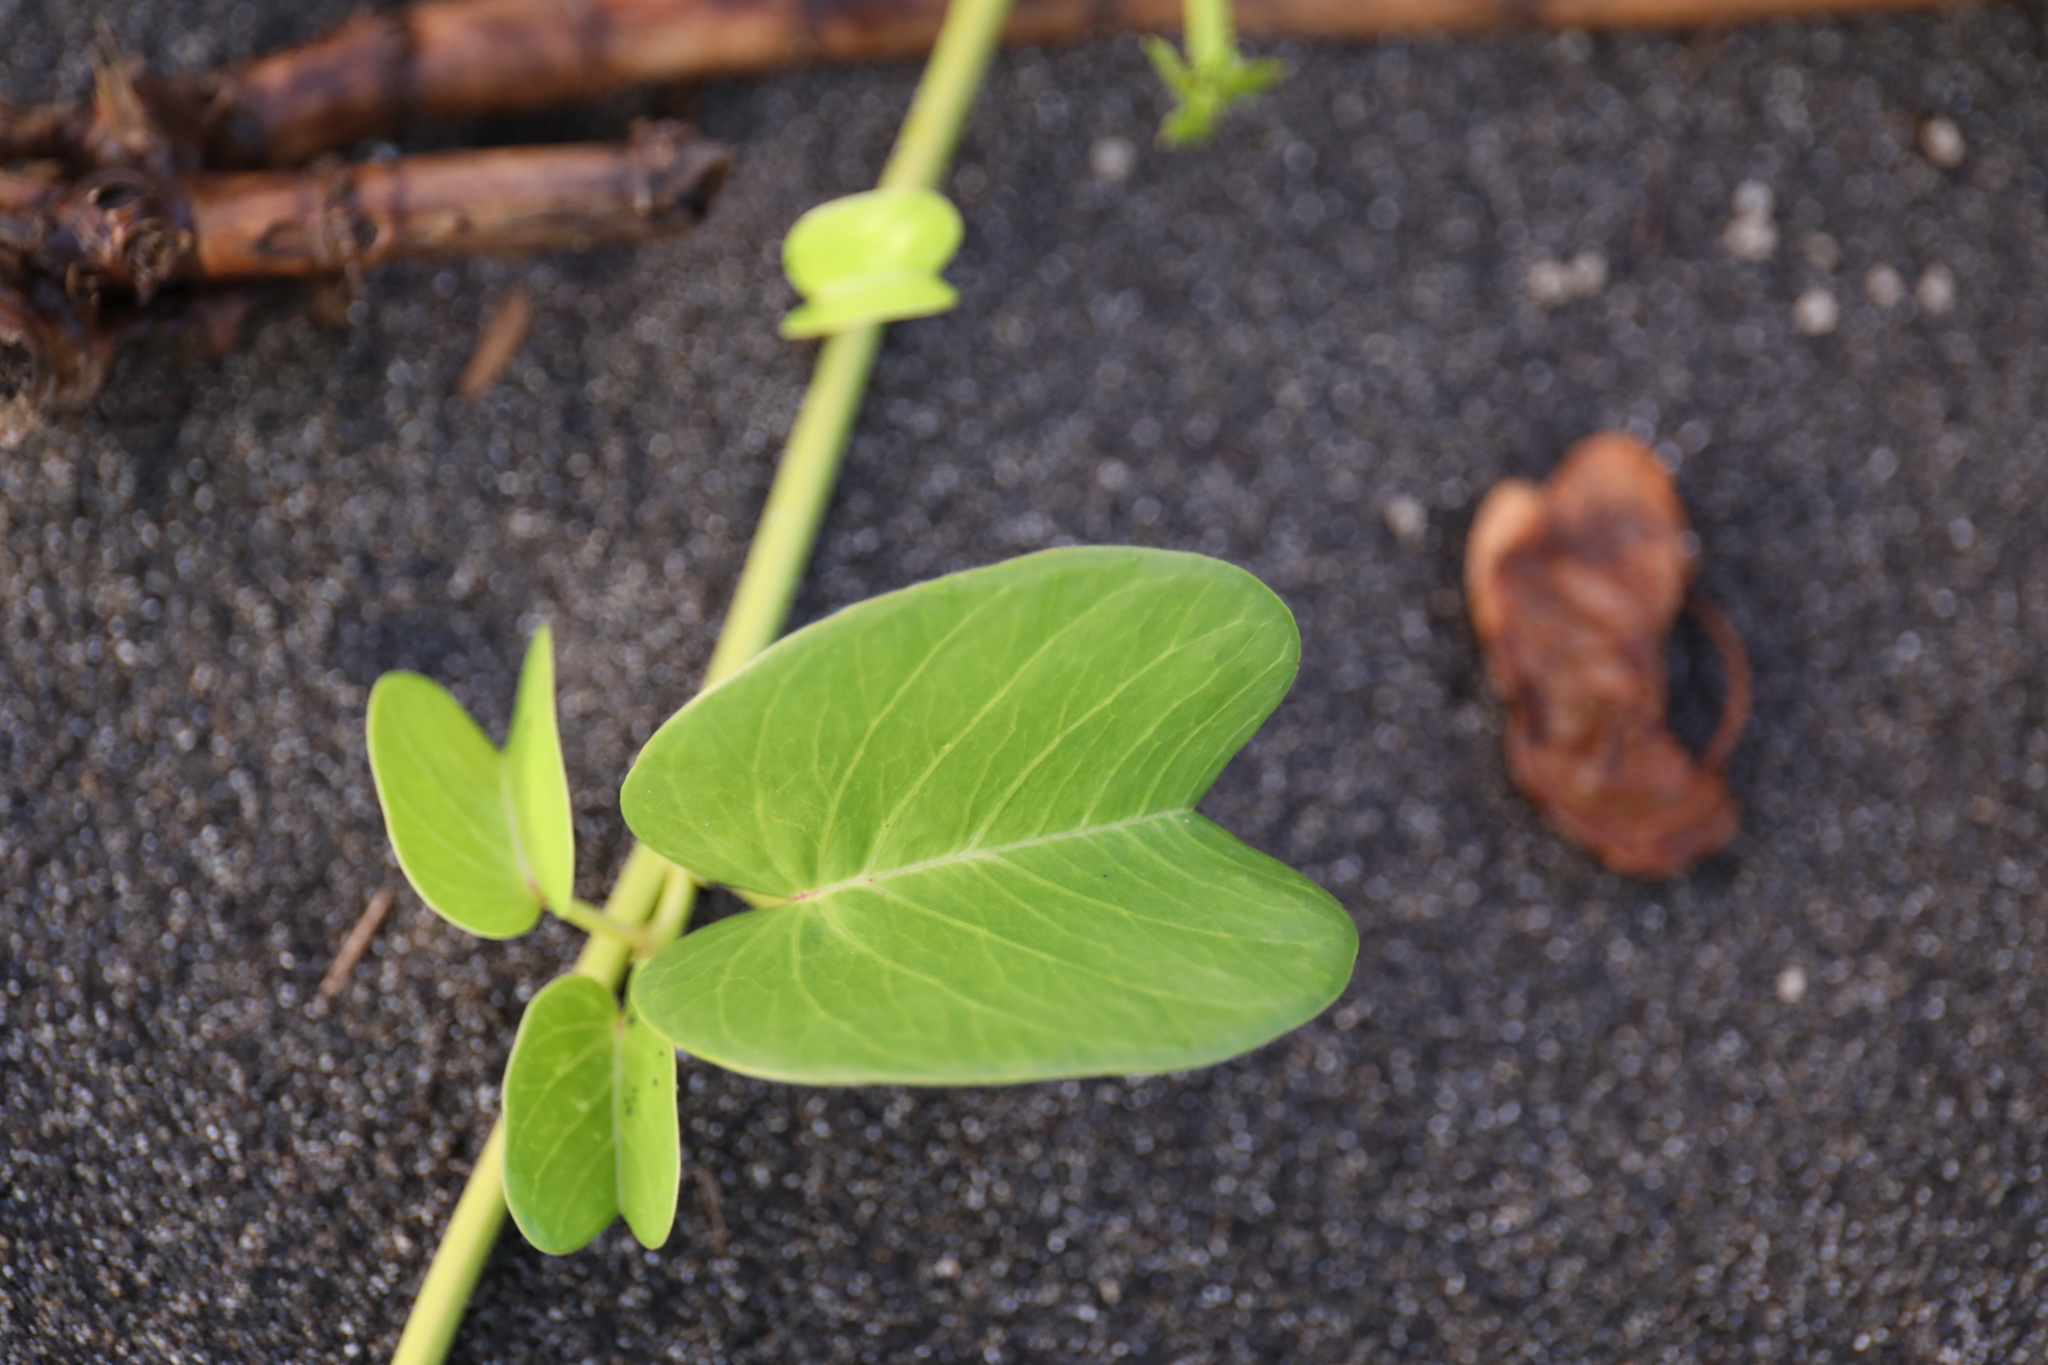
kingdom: Plantae
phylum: Tracheophyta
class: Magnoliopsida
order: Solanales
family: Convolvulaceae
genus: Ipomoea
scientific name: Ipomoea pes-caprae
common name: Beach morning glory
